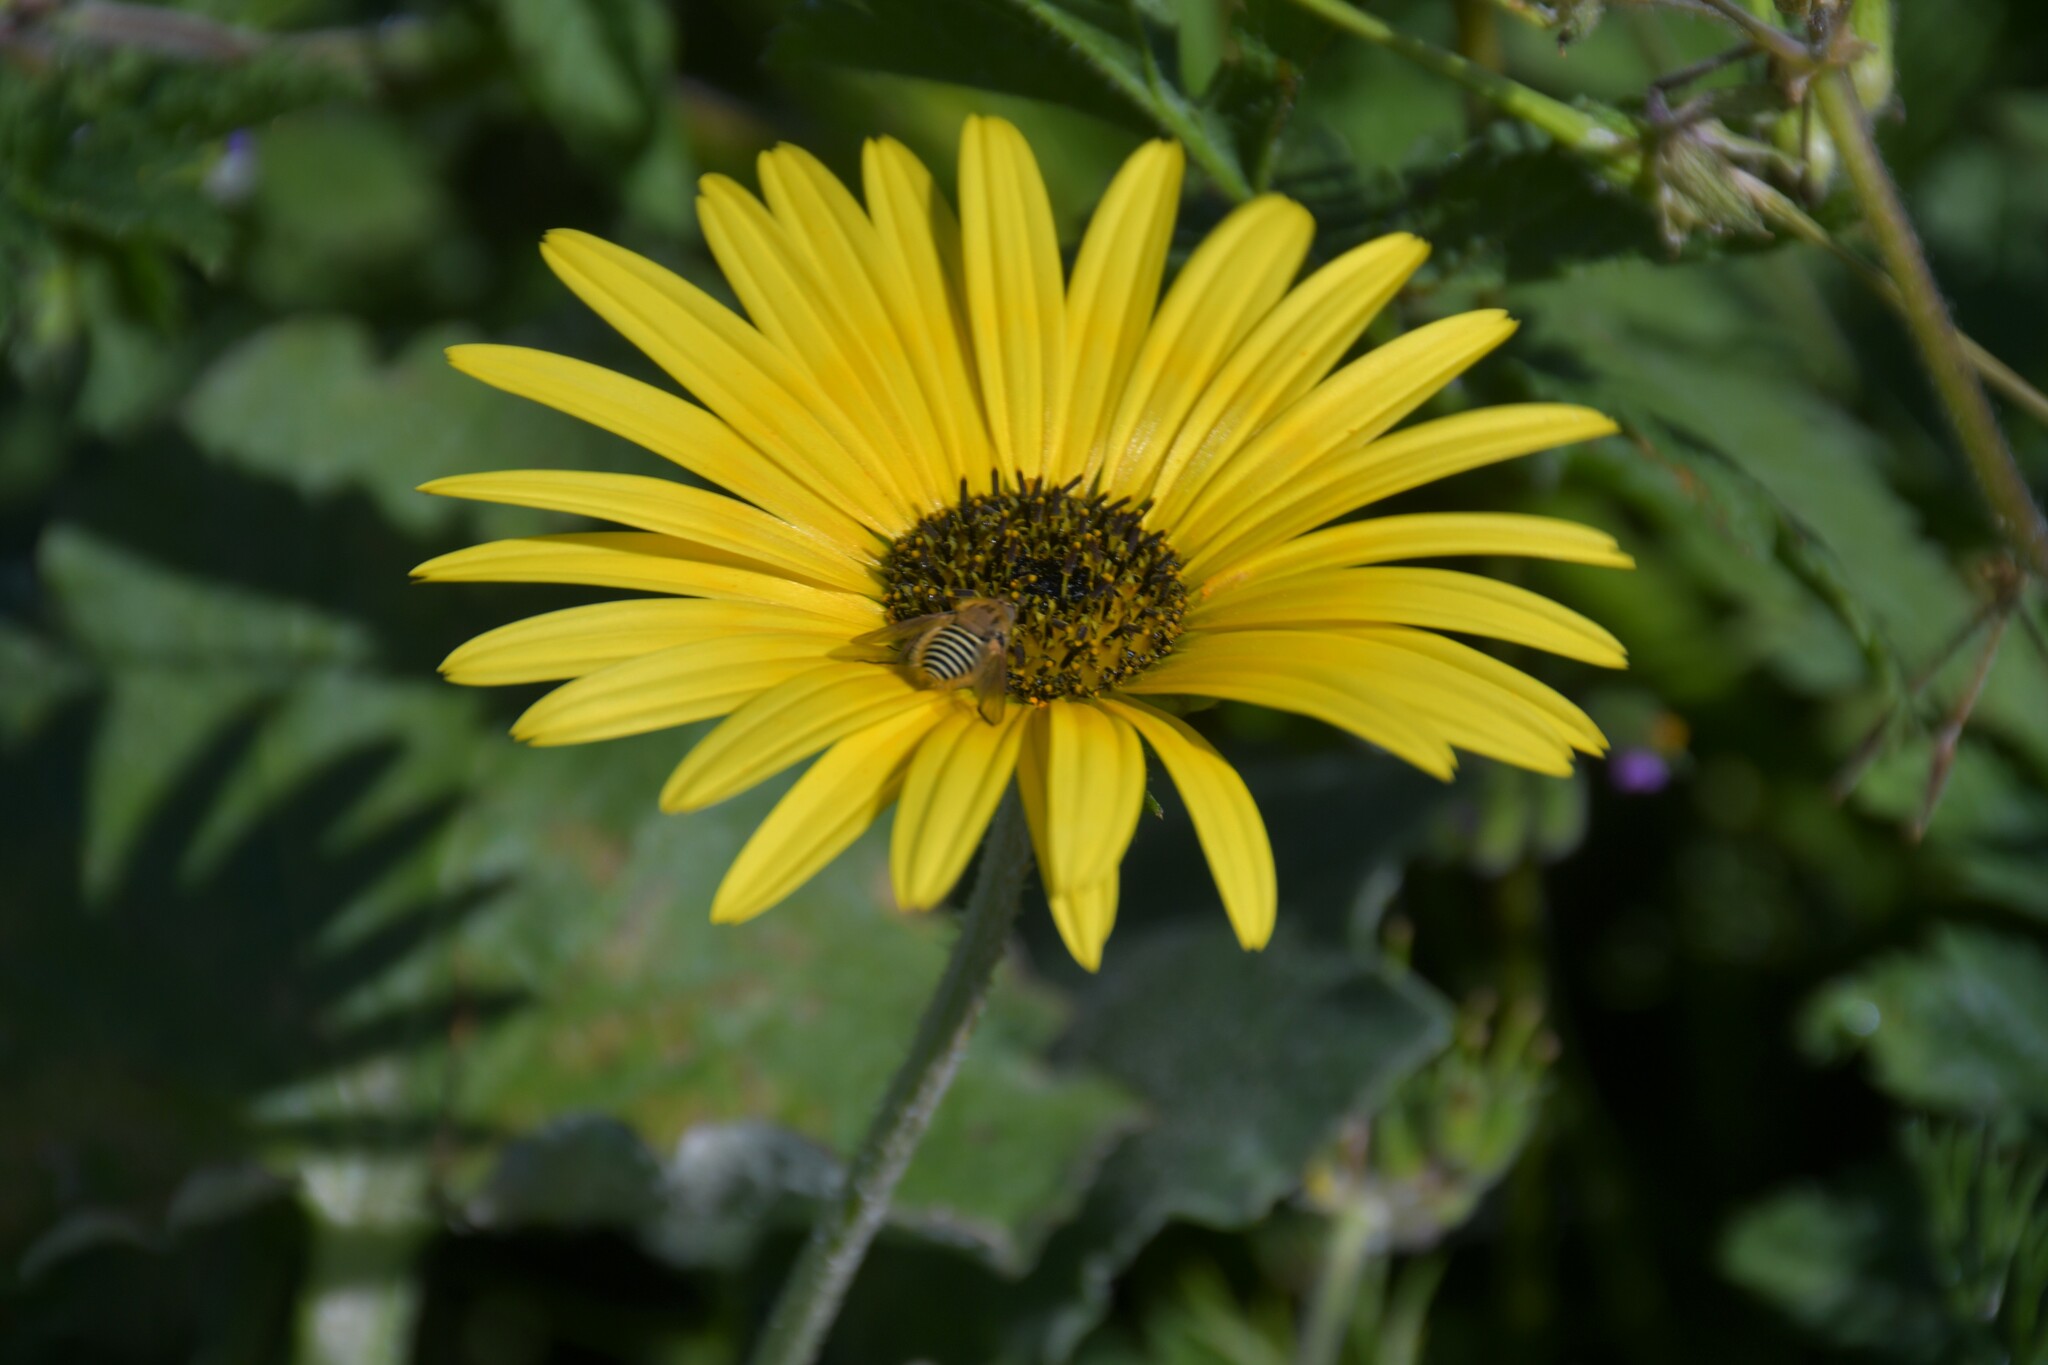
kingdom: Plantae
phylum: Tracheophyta
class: Magnoliopsida
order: Asterales
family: Asteraceae
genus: Arctotheca
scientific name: Arctotheca calendula
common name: Capeweed
